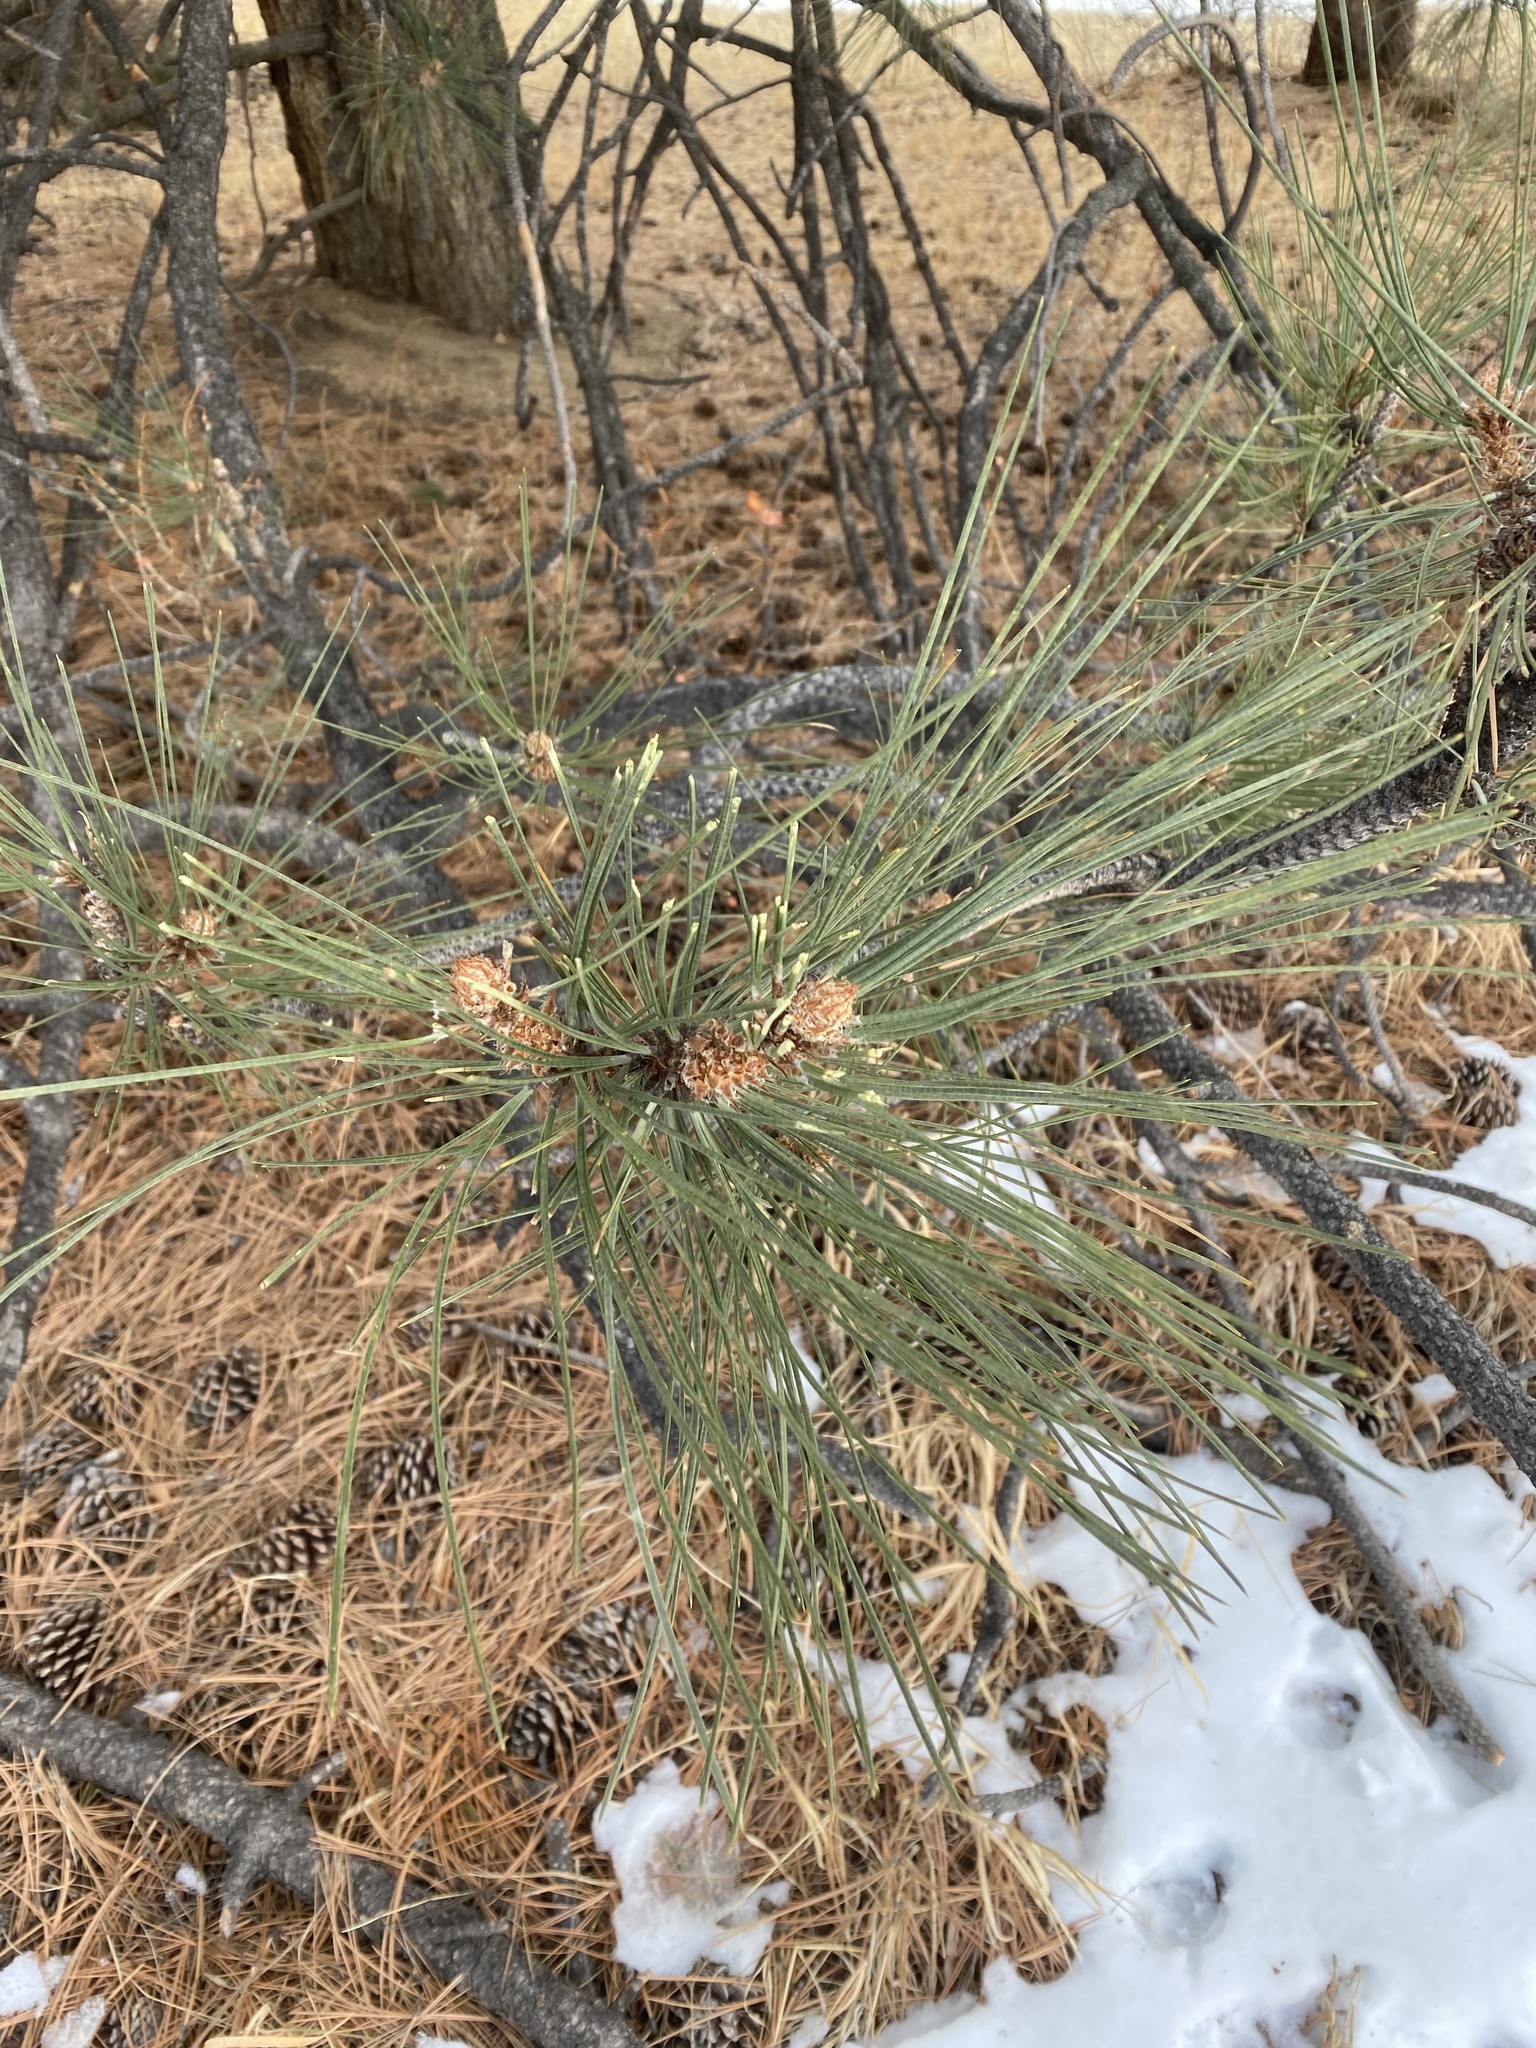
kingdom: Plantae
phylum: Tracheophyta
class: Pinopsida
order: Pinales
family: Pinaceae
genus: Pinus
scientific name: Pinus ponderosa
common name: Western yellow-pine
